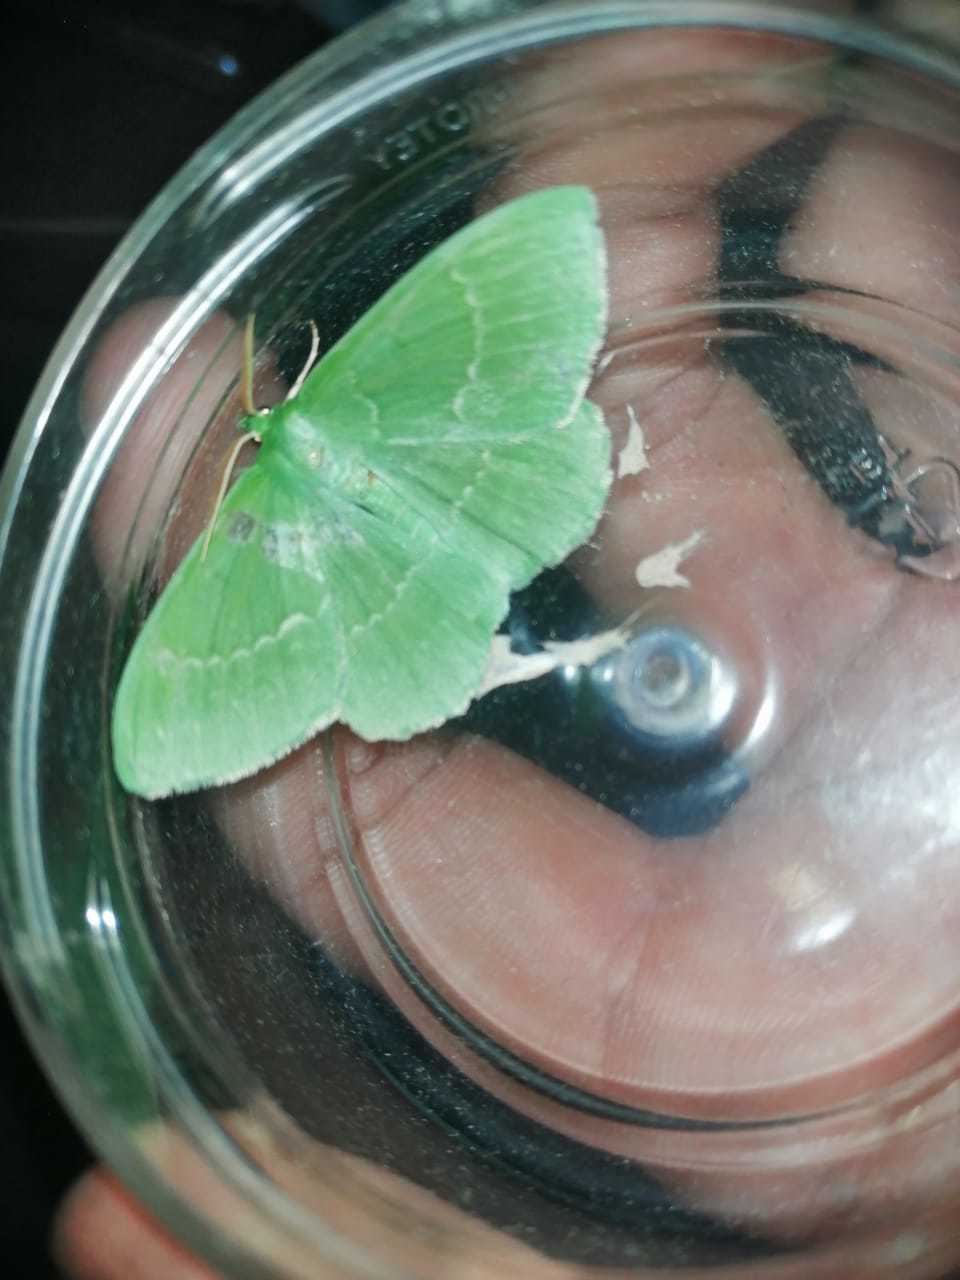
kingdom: Animalia
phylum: Arthropoda
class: Insecta
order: Lepidoptera
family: Geometridae
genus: Geometra
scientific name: Geometra papilionaria
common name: Large emerald
